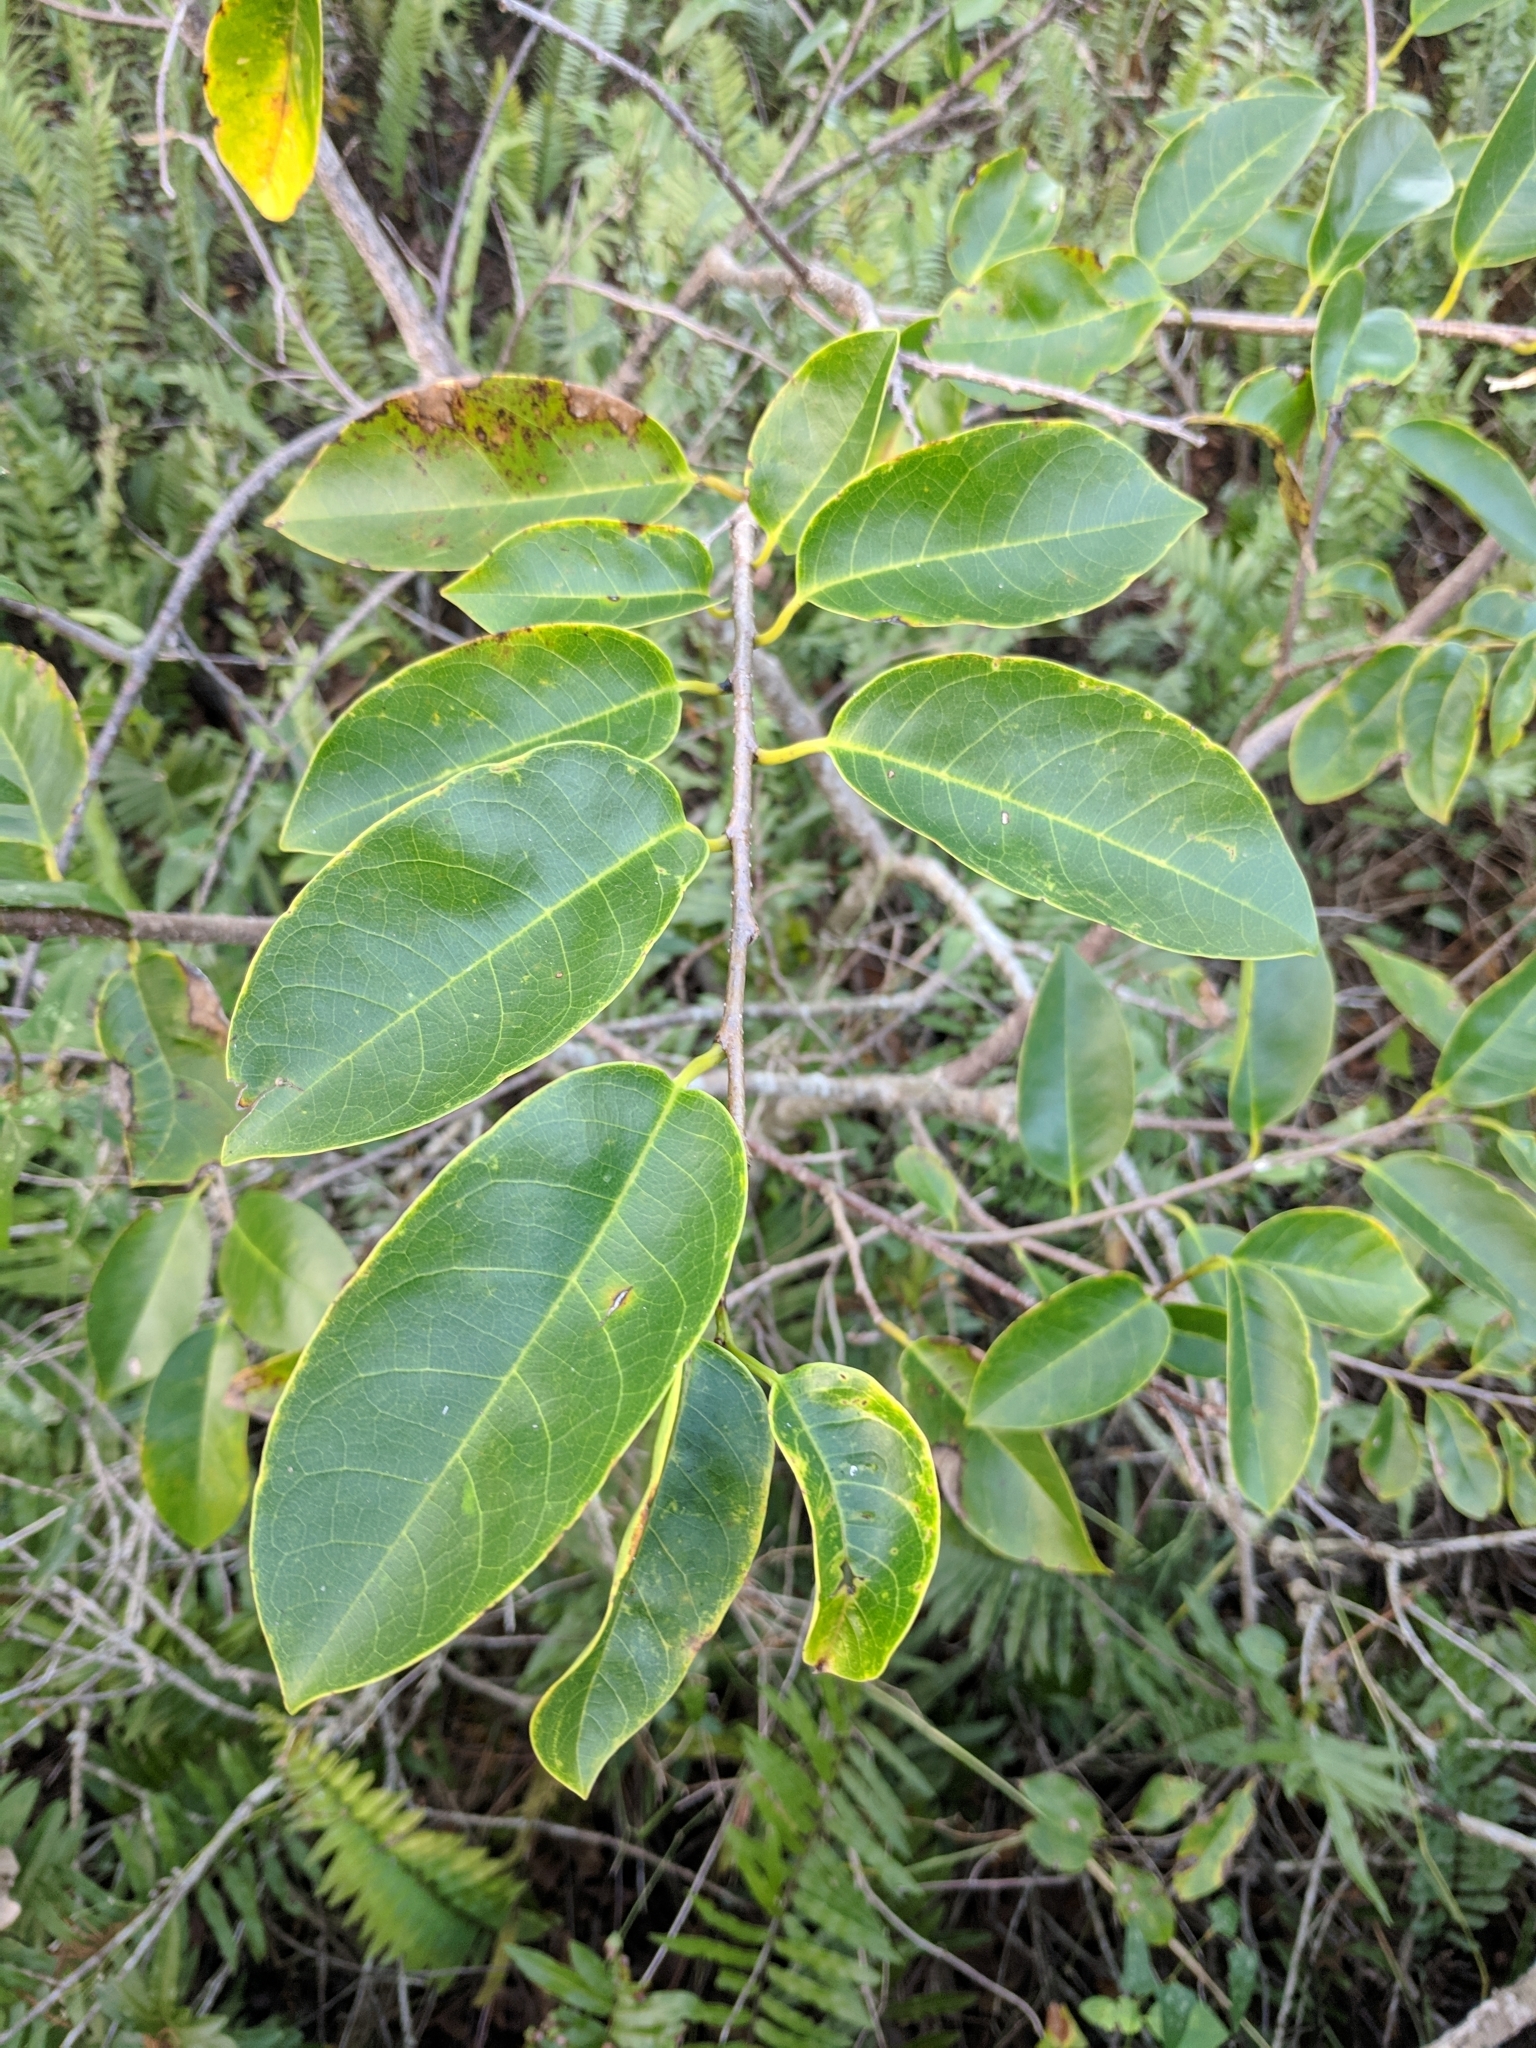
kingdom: Plantae
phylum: Tracheophyta
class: Magnoliopsida
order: Magnoliales
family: Annonaceae
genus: Annona
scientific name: Annona glabra
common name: Monkey apple
